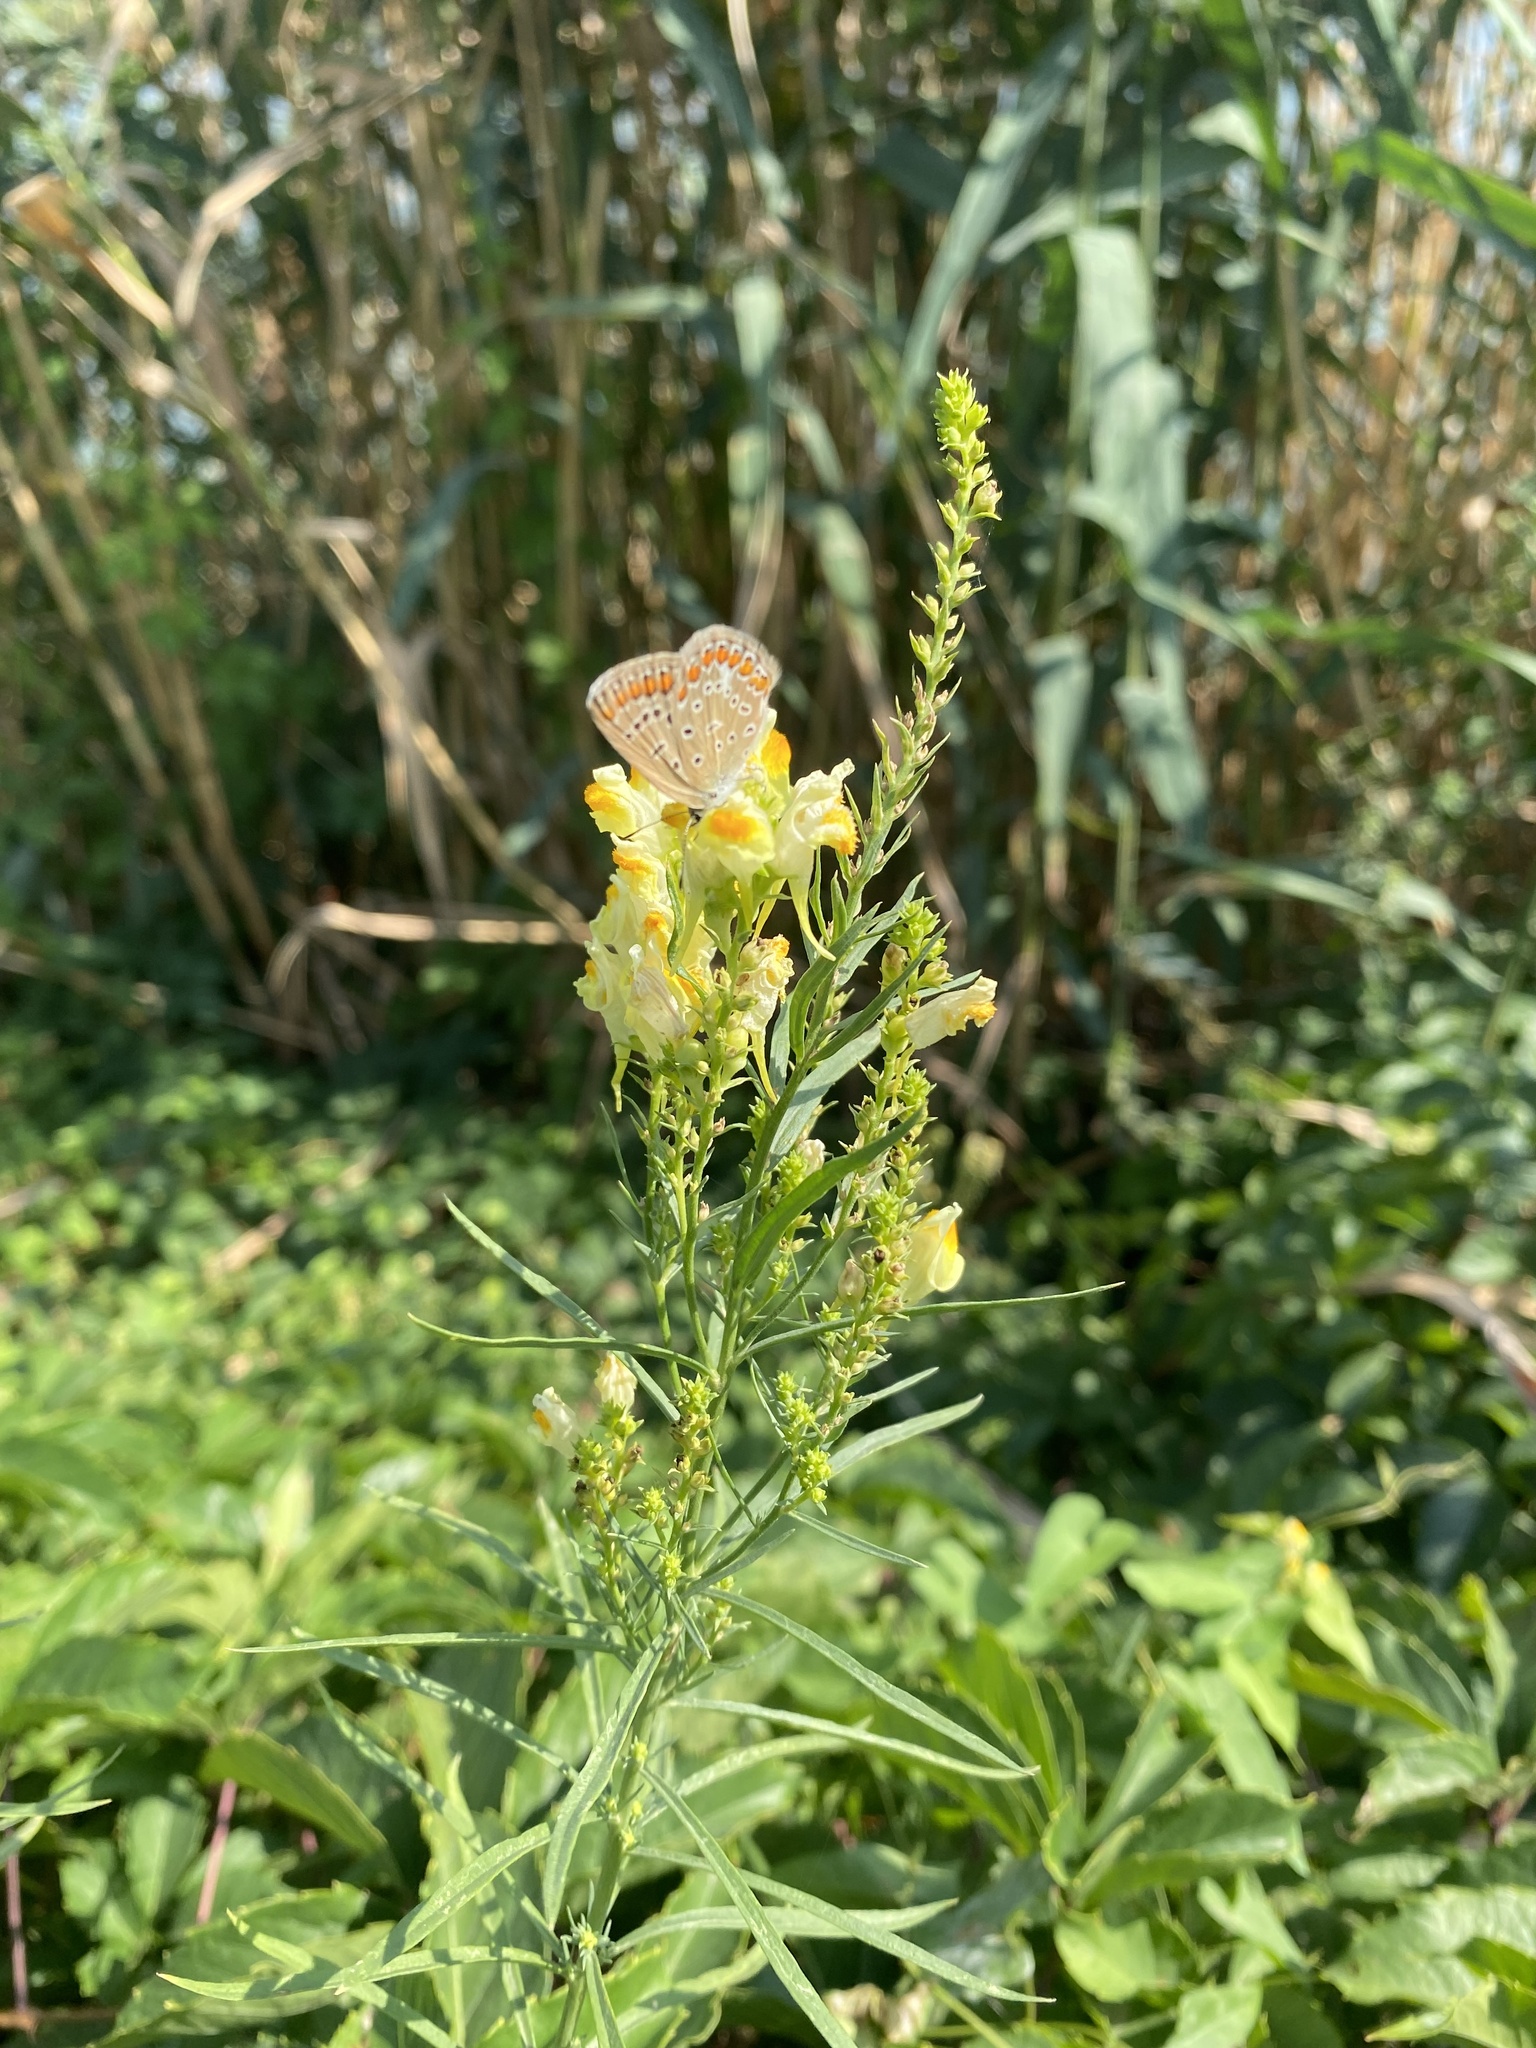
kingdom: Plantae
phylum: Tracheophyta
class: Magnoliopsida
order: Lamiales
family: Plantaginaceae
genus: Linaria
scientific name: Linaria vulgaris
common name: Butter and eggs
